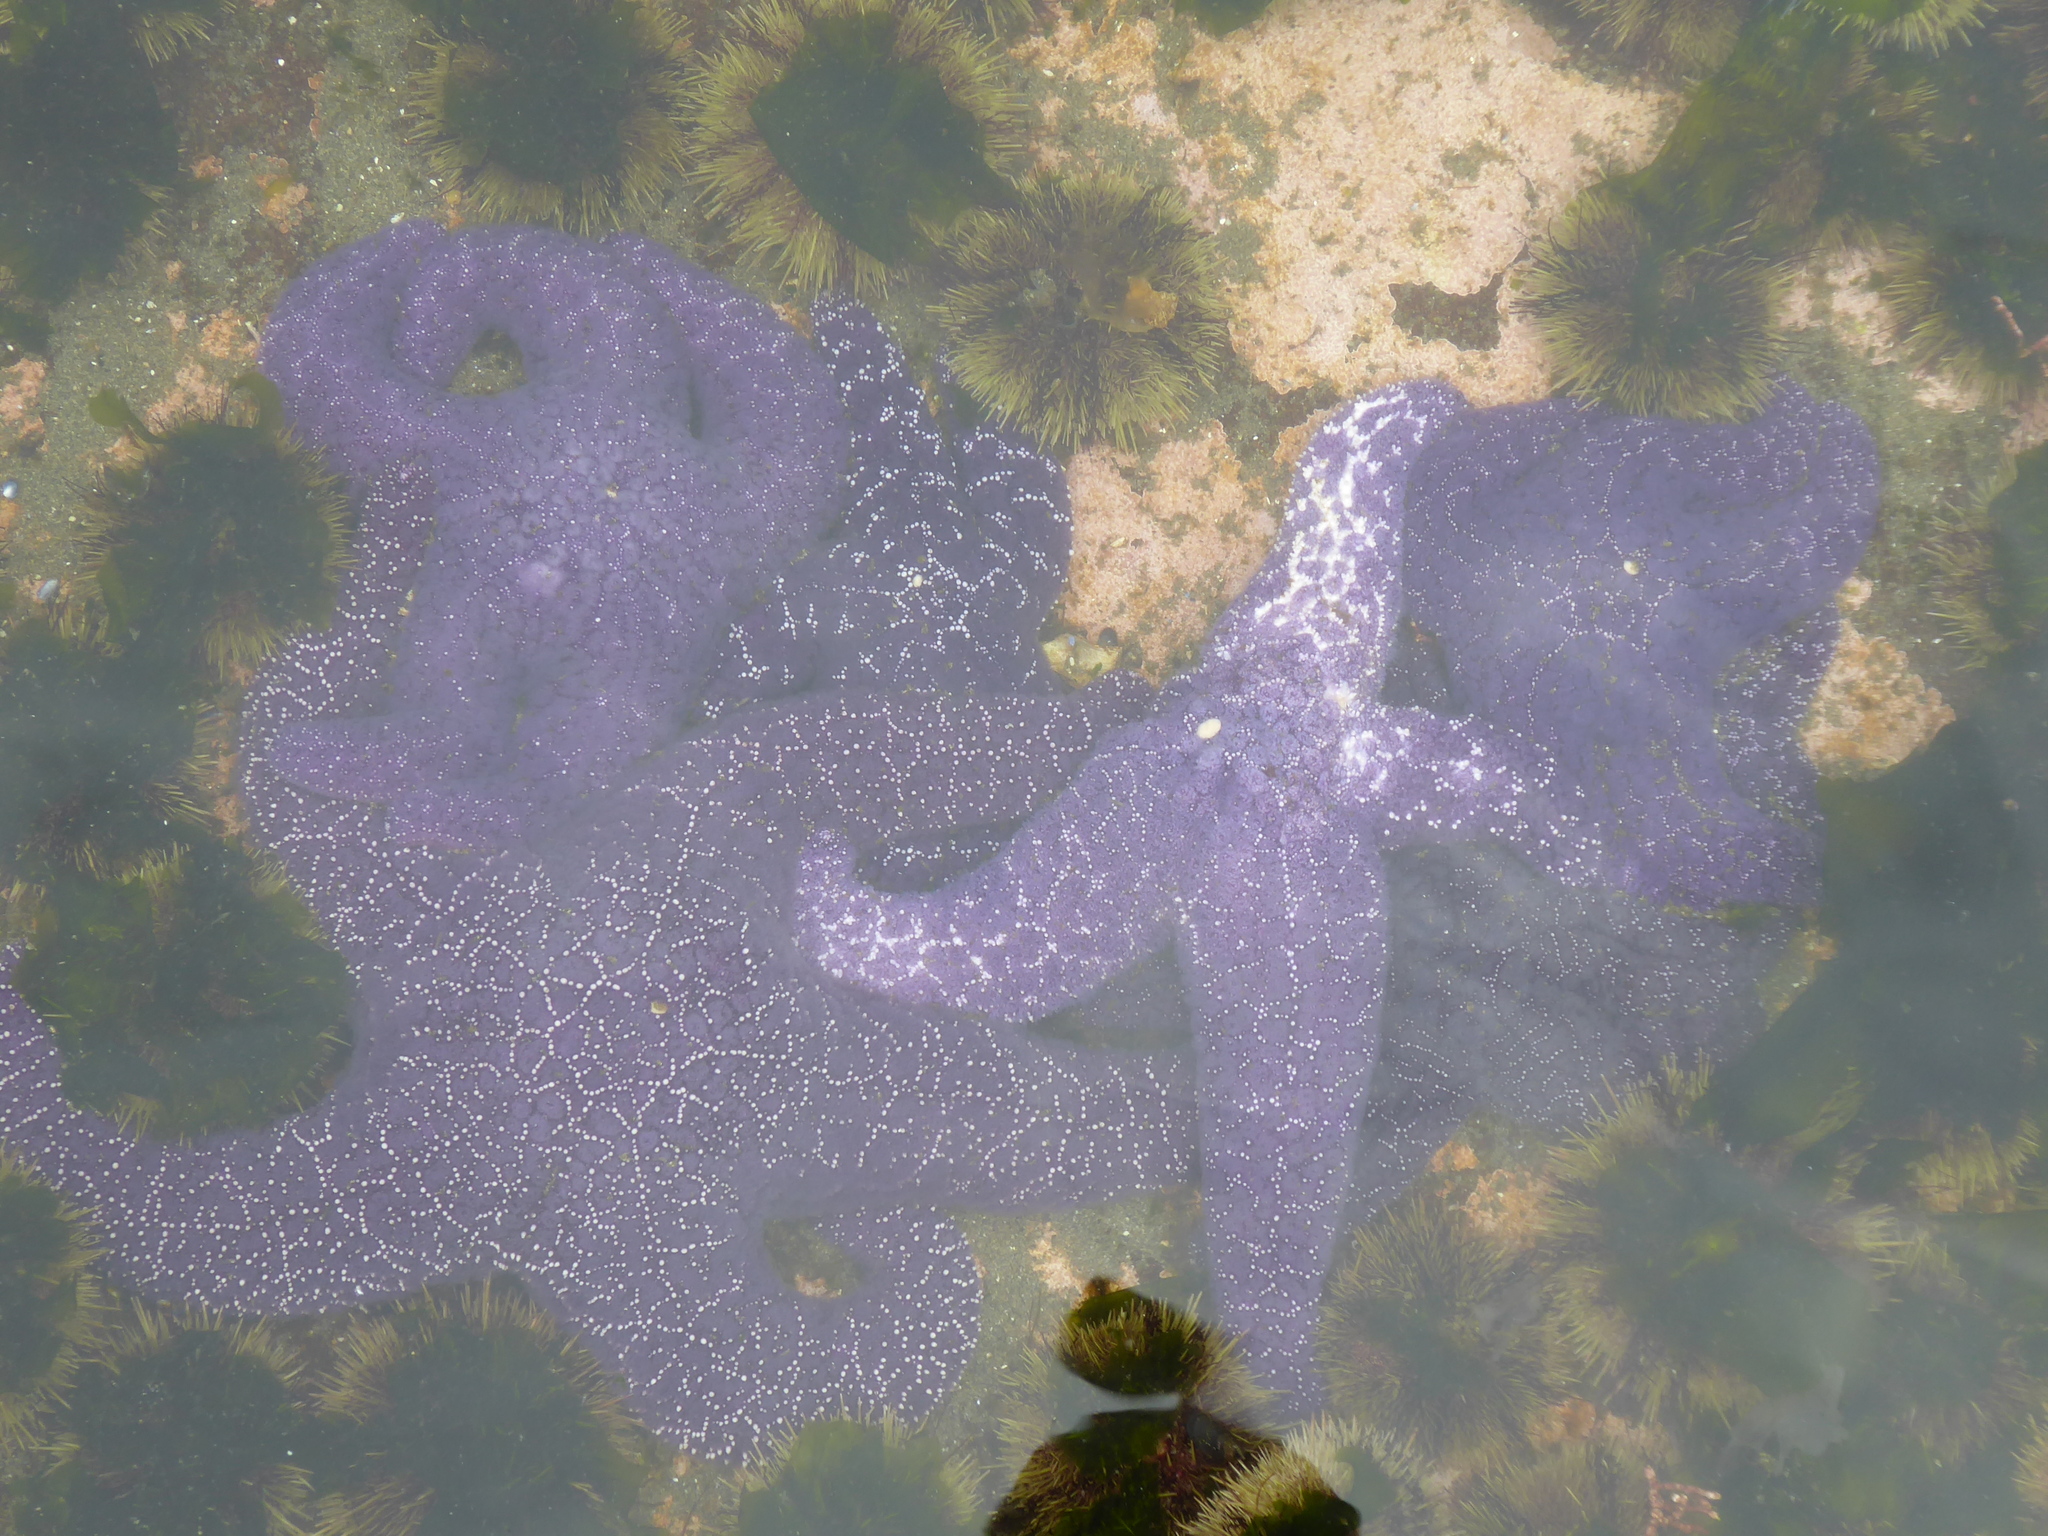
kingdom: Animalia
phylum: Echinodermata
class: Asteroidea
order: Forcipulatida
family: Asteriidae
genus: Pisaster
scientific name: Pisaster ochraceus
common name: Ochre stars
